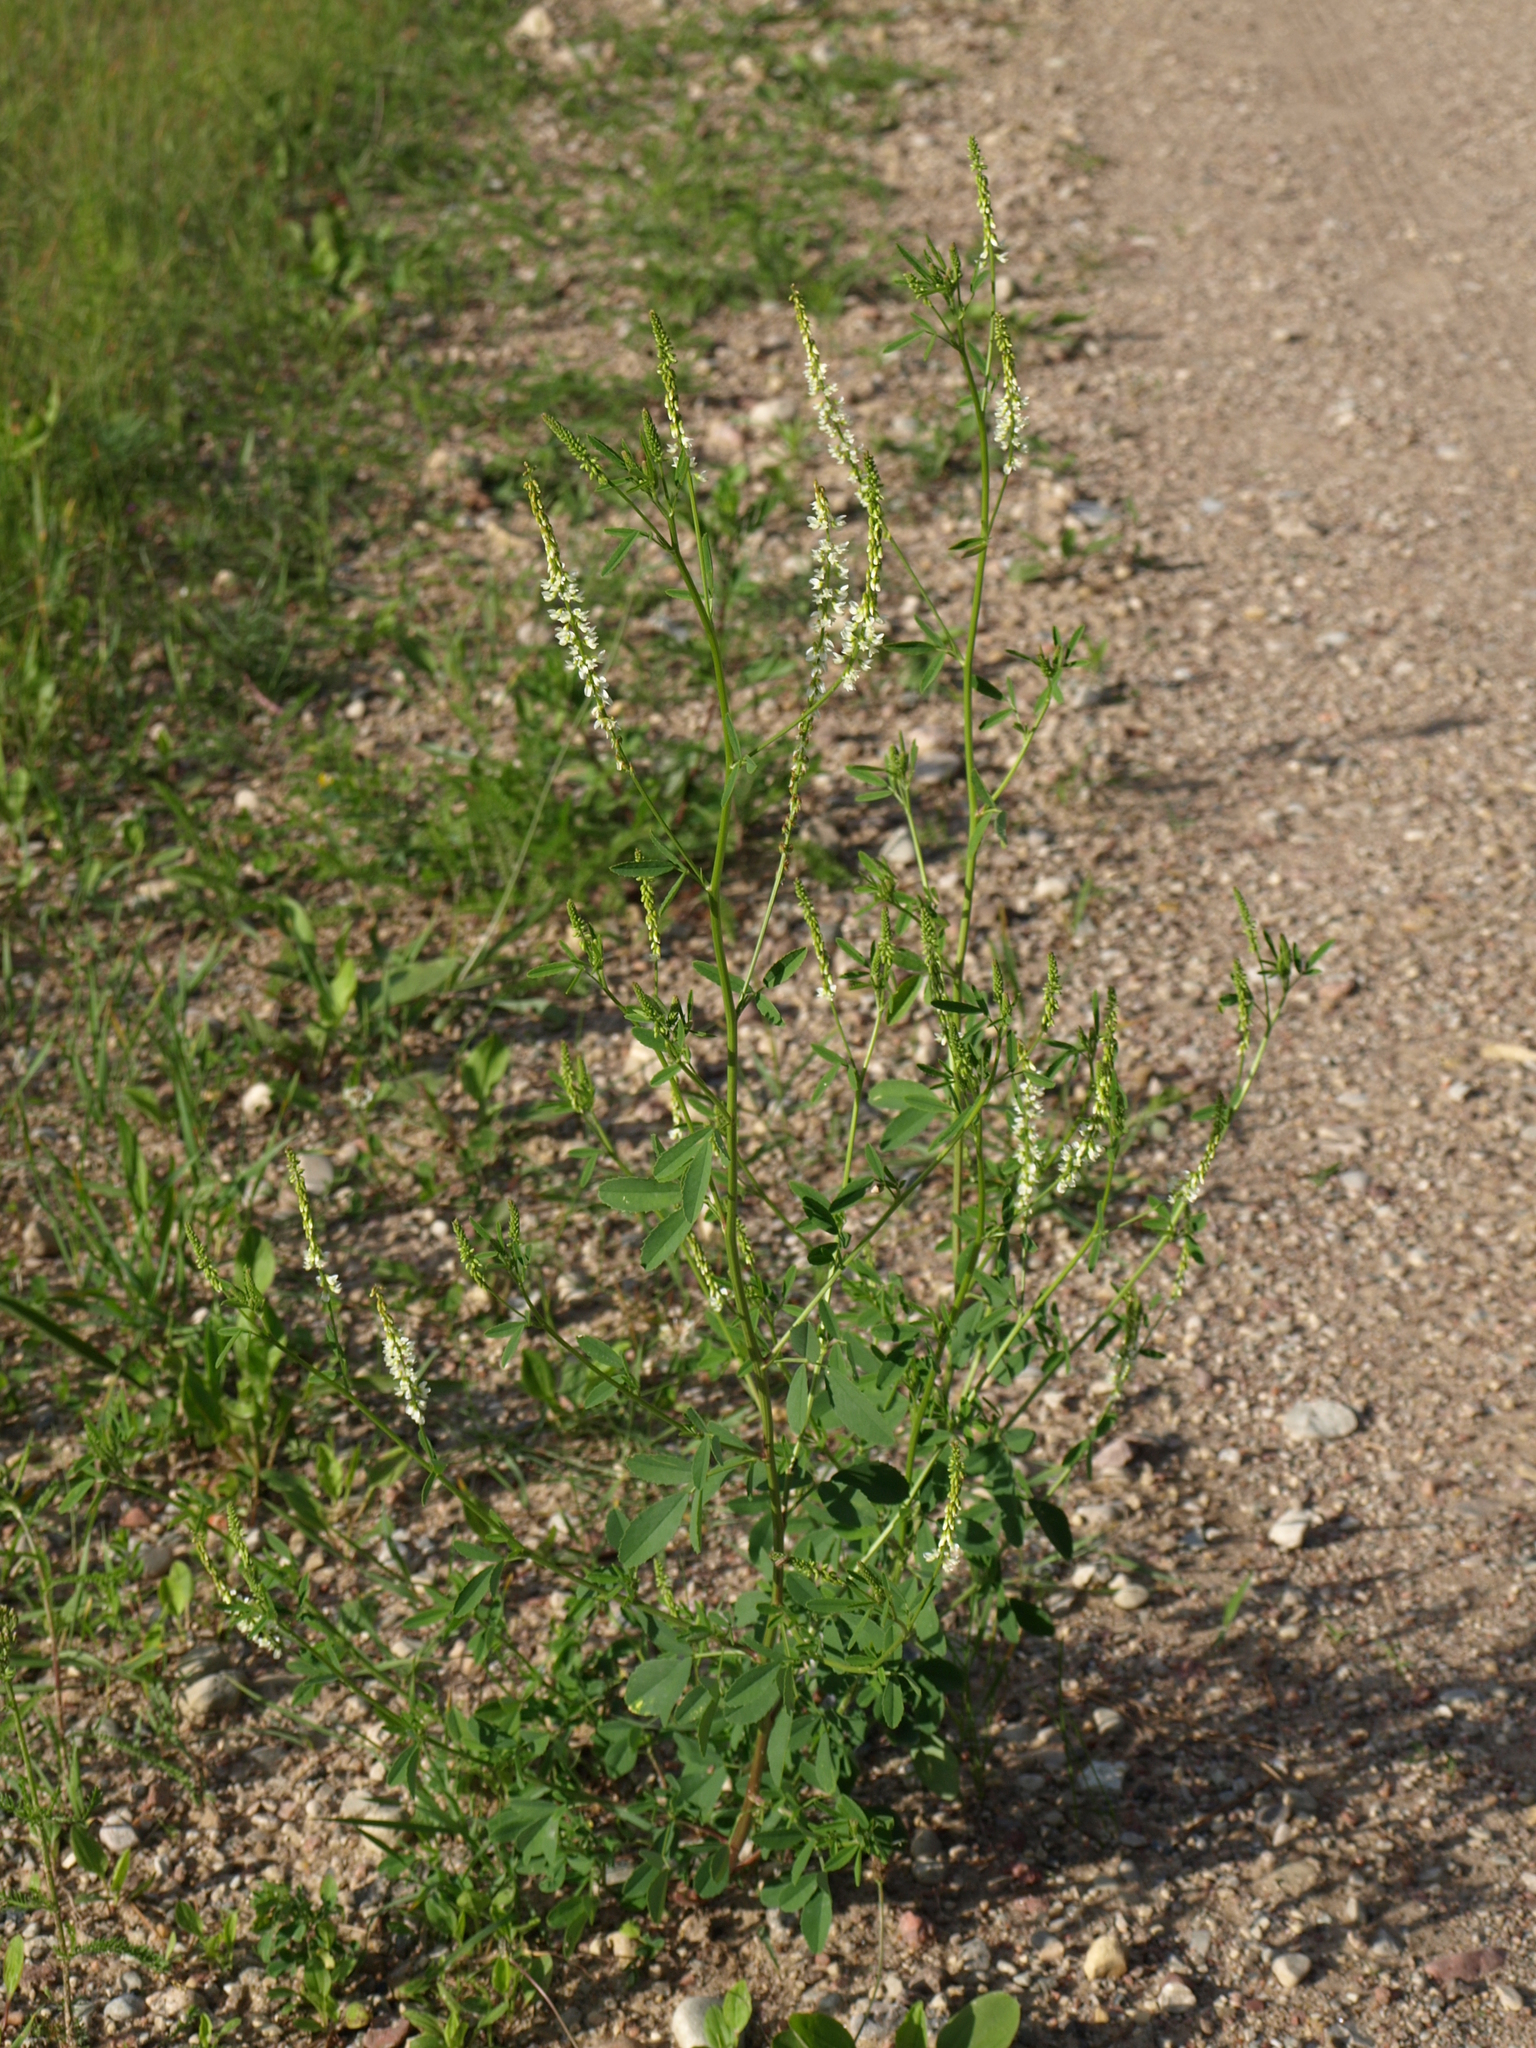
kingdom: Plantae
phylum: Tracheophyta
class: Magnoliopsida
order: Fabales
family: Fabaceae
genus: Melilotus
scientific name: Melilotus albus
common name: White melilot
